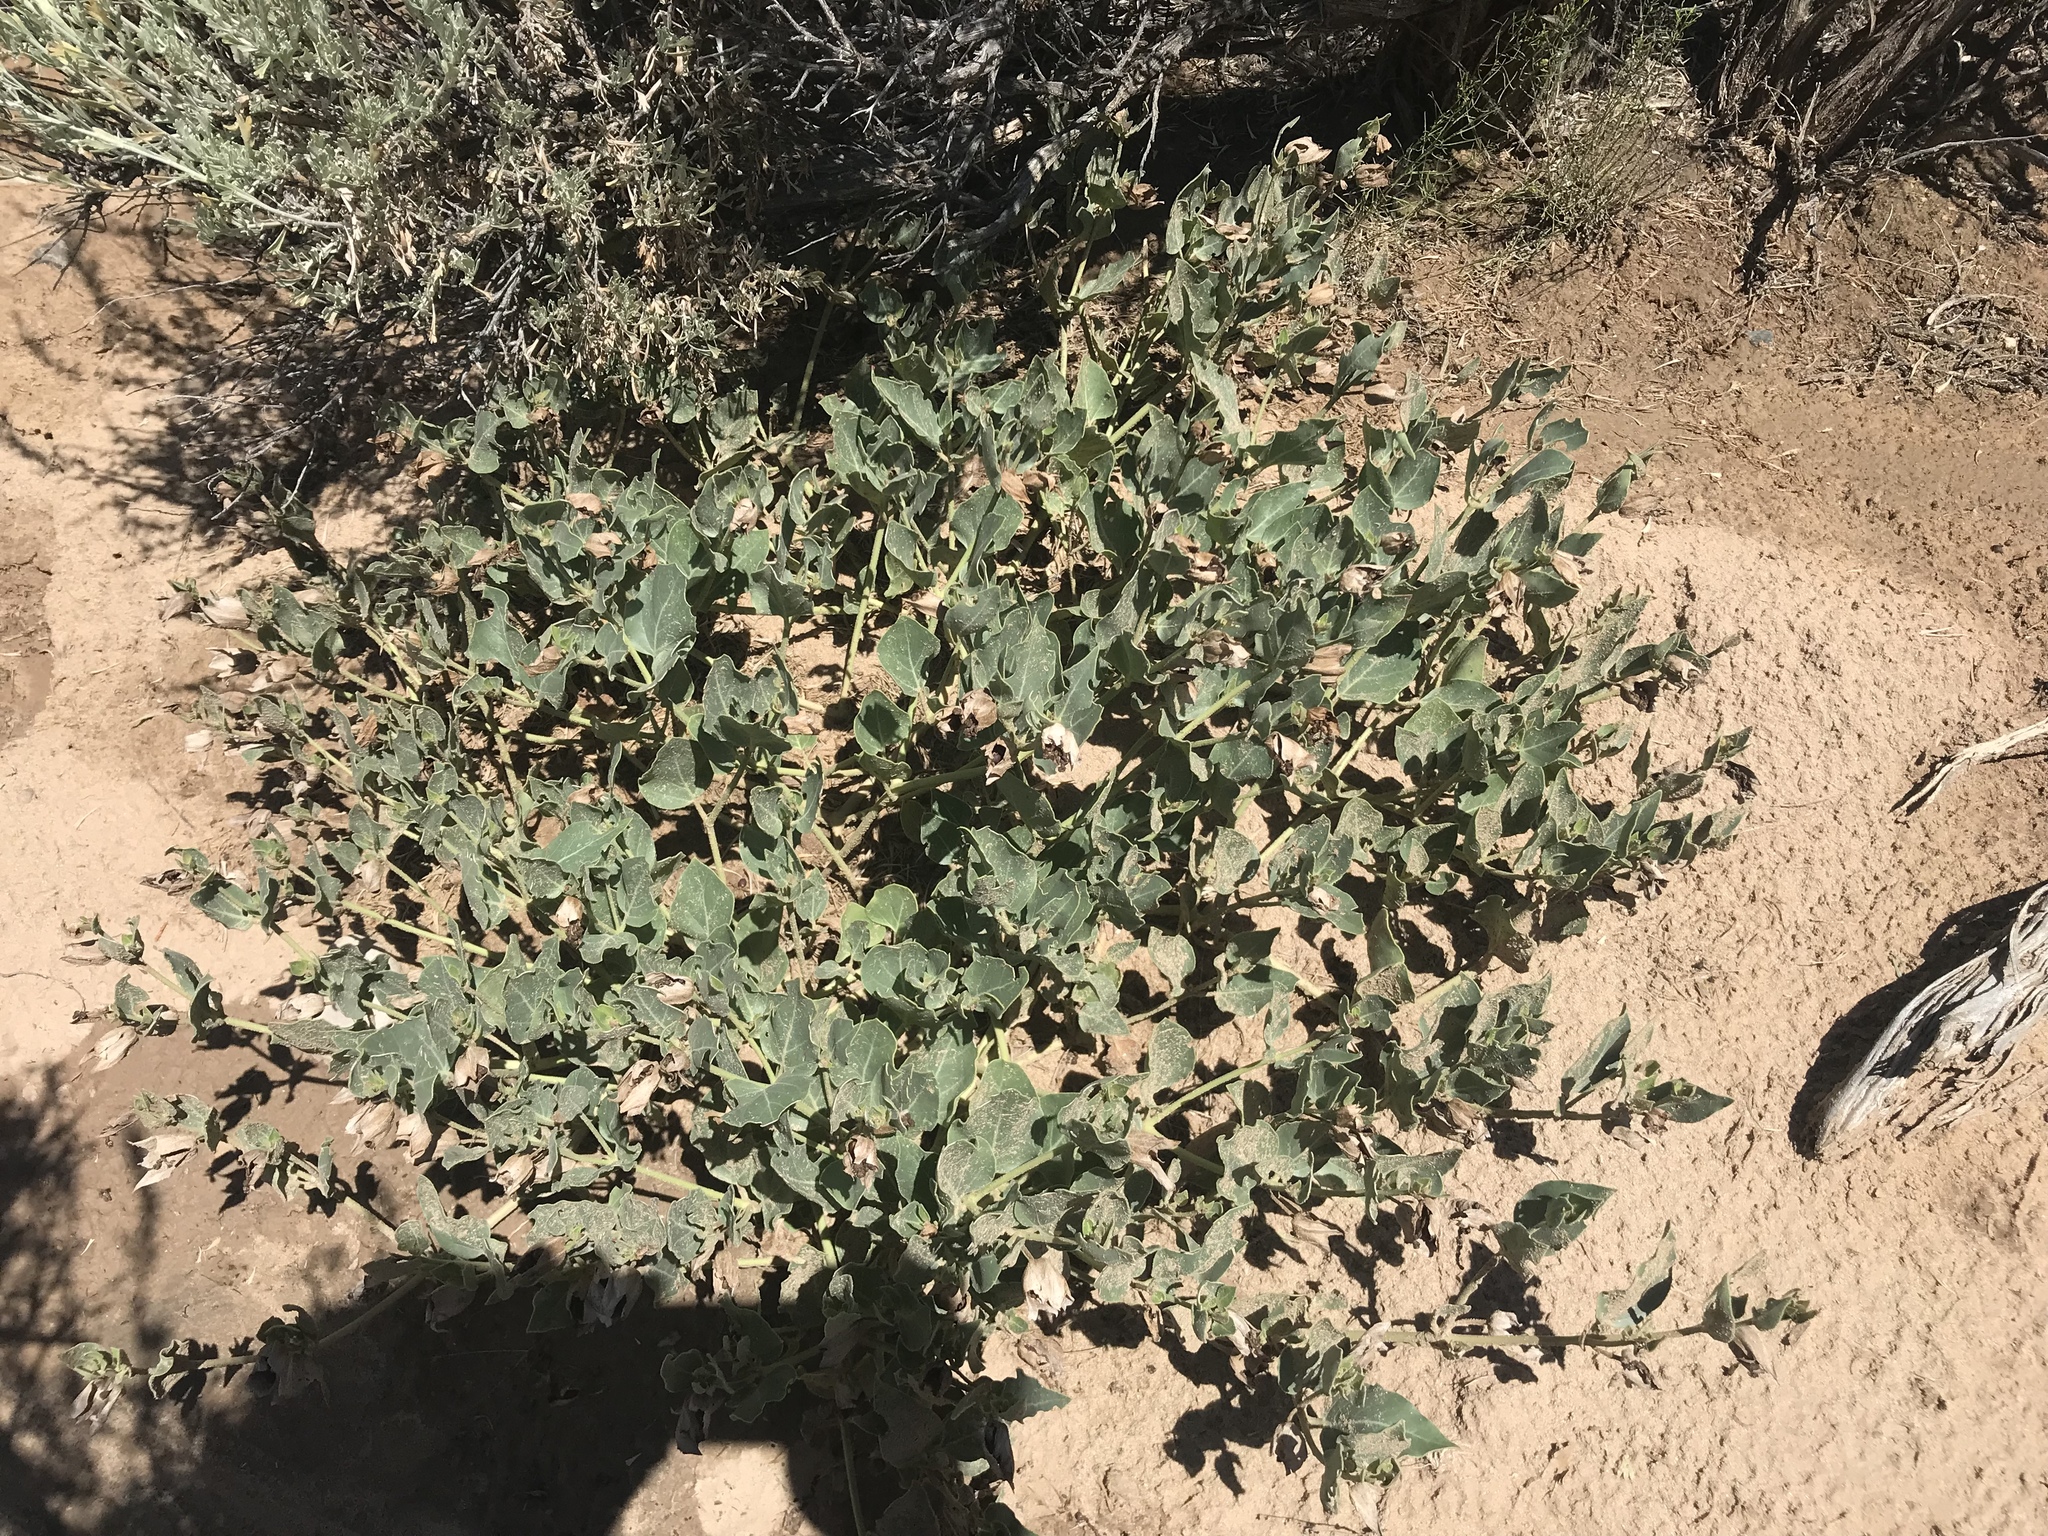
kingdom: Plantae
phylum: Tracheophyta
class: Magnoliopsida
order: Caryophyllales
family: Nyctaginaceae
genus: Mirabilis
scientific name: Mirabilis multiflora
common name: Froebel's four-o'clock
